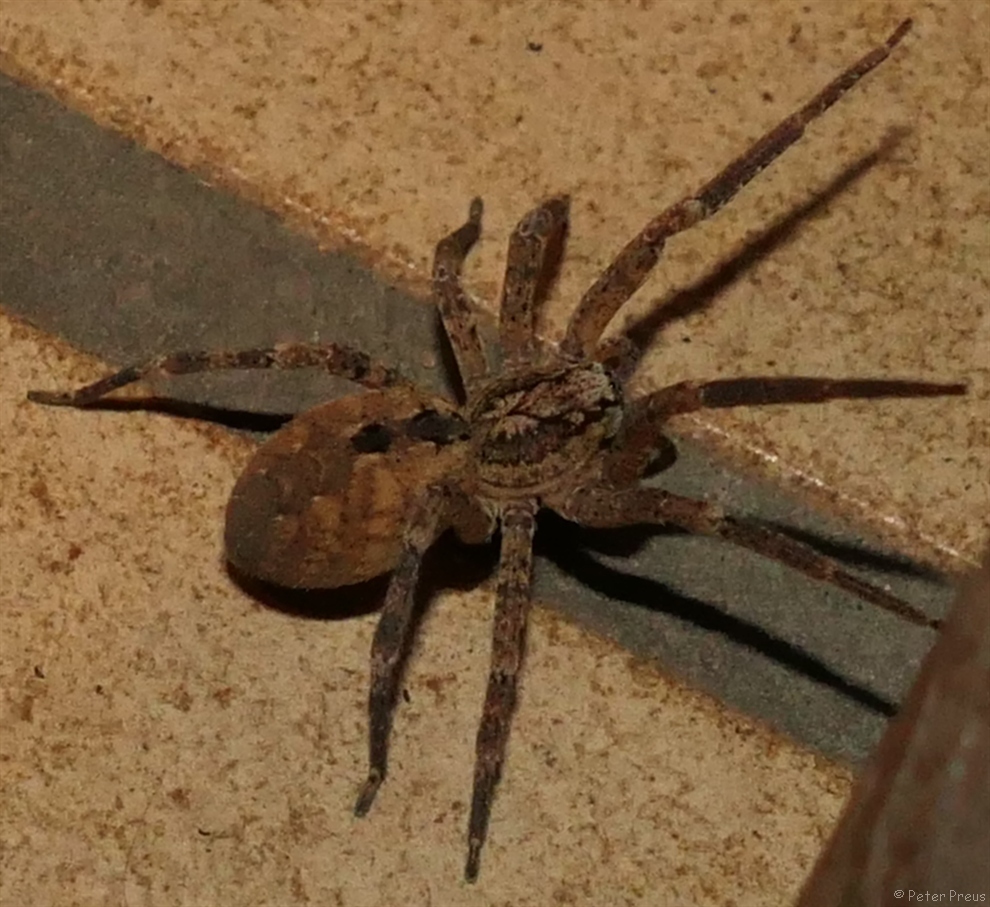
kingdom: Animalia
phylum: Arthropoda
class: Arachnida
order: Araneae
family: Zoropsidae
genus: Zoropsis
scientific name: Zoropsis spinimana
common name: Zoropsid spider
